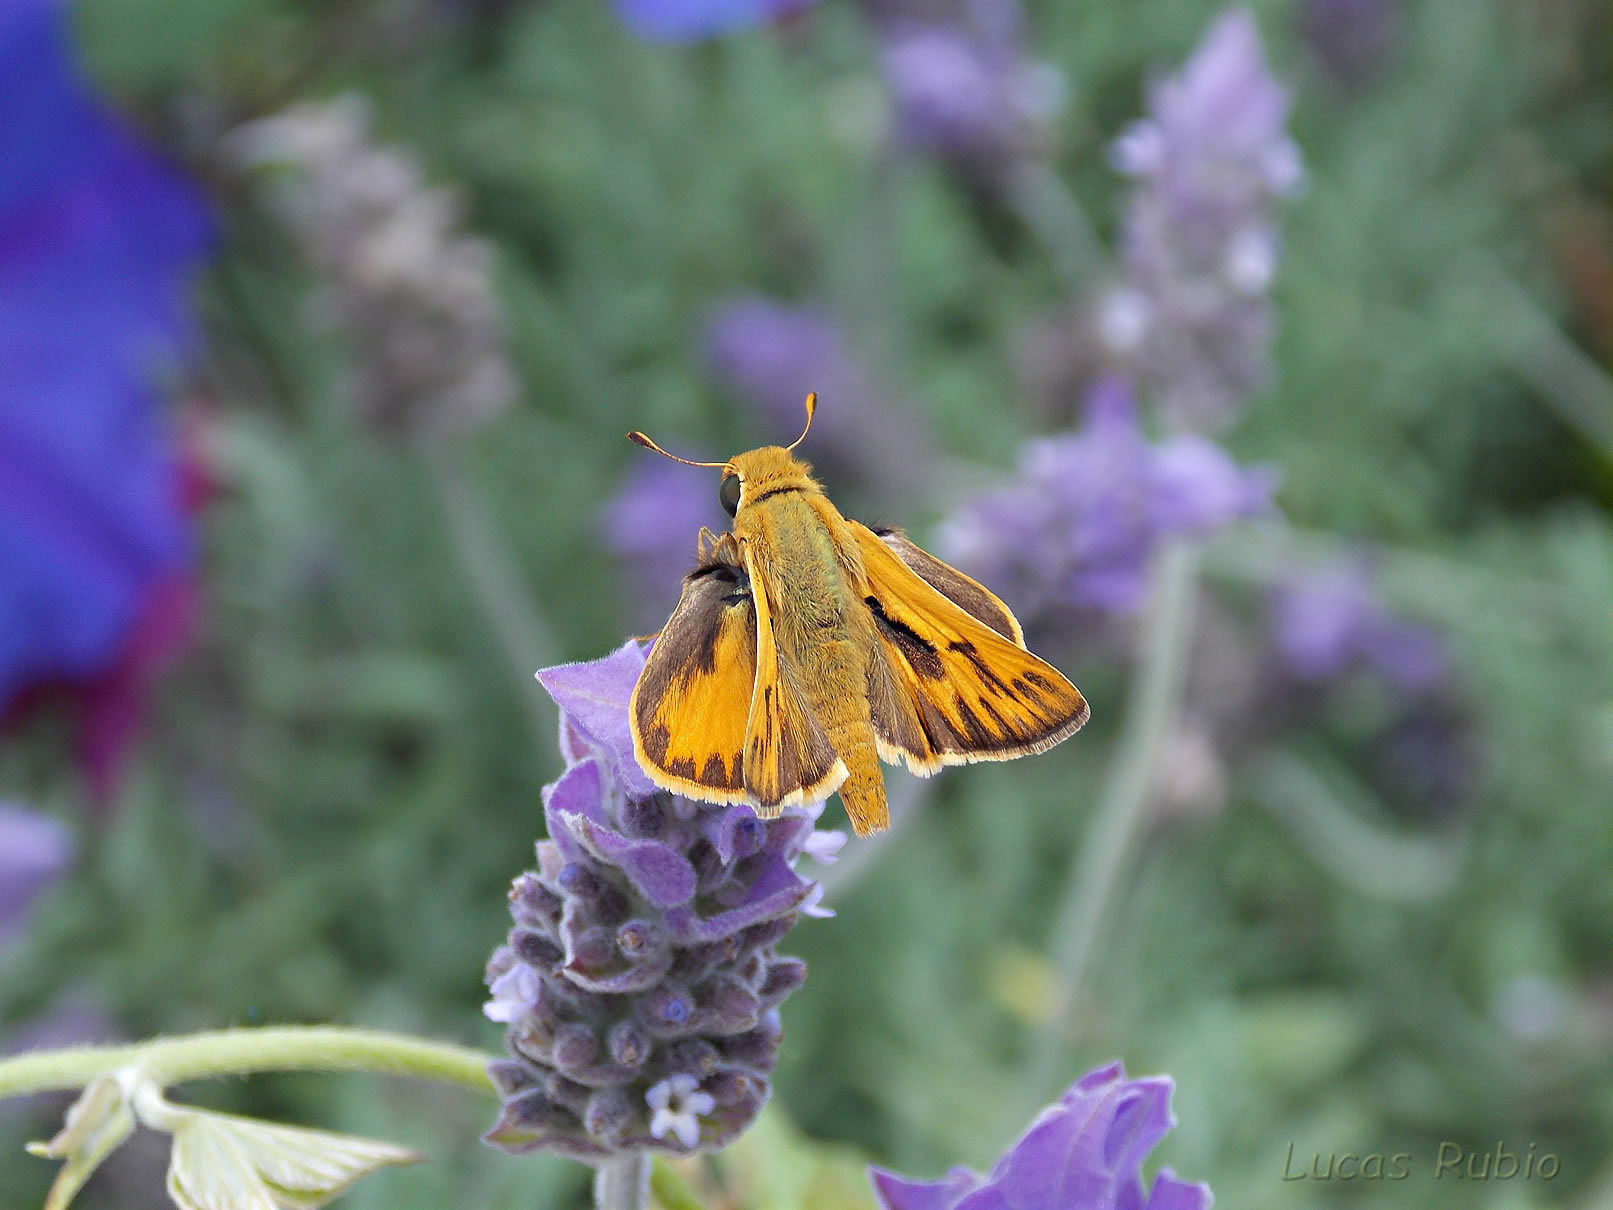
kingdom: Animalia
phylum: Arthropoda
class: Insecta
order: Lepidoptera
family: Hesperiidae
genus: Hylephila
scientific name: Hylephila phyleus
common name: Fiery skipper
